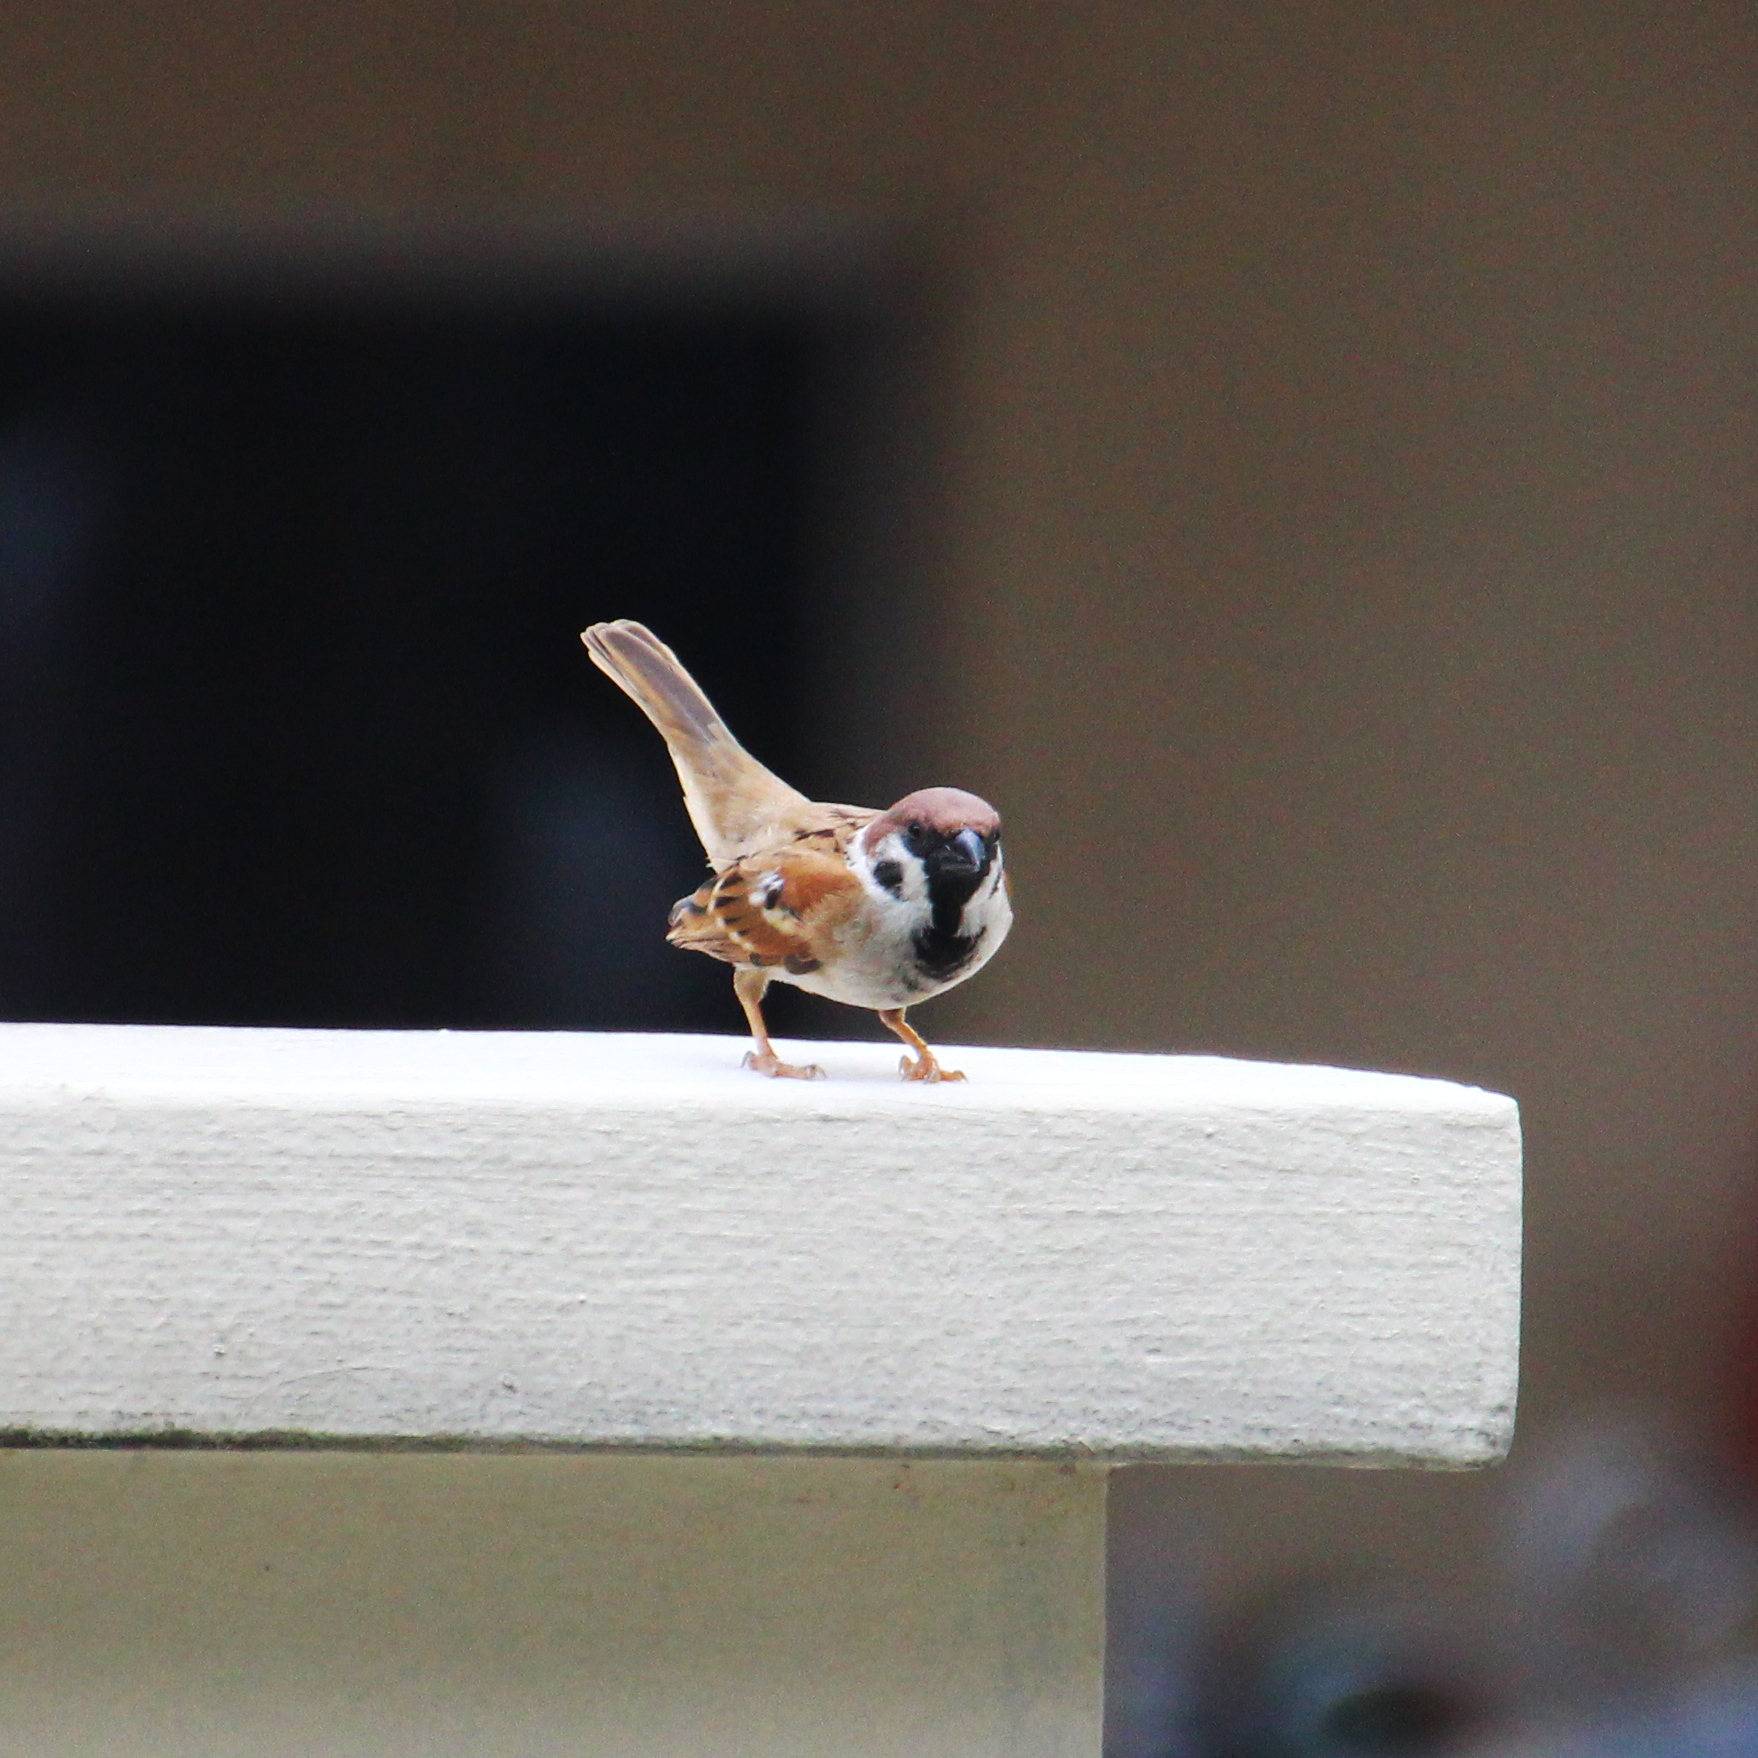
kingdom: Animalia
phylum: Chordata
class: Aves
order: Passeriformes
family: Passeridae
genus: Passer
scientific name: Passer montanus
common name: Eurasian tree sparrow
